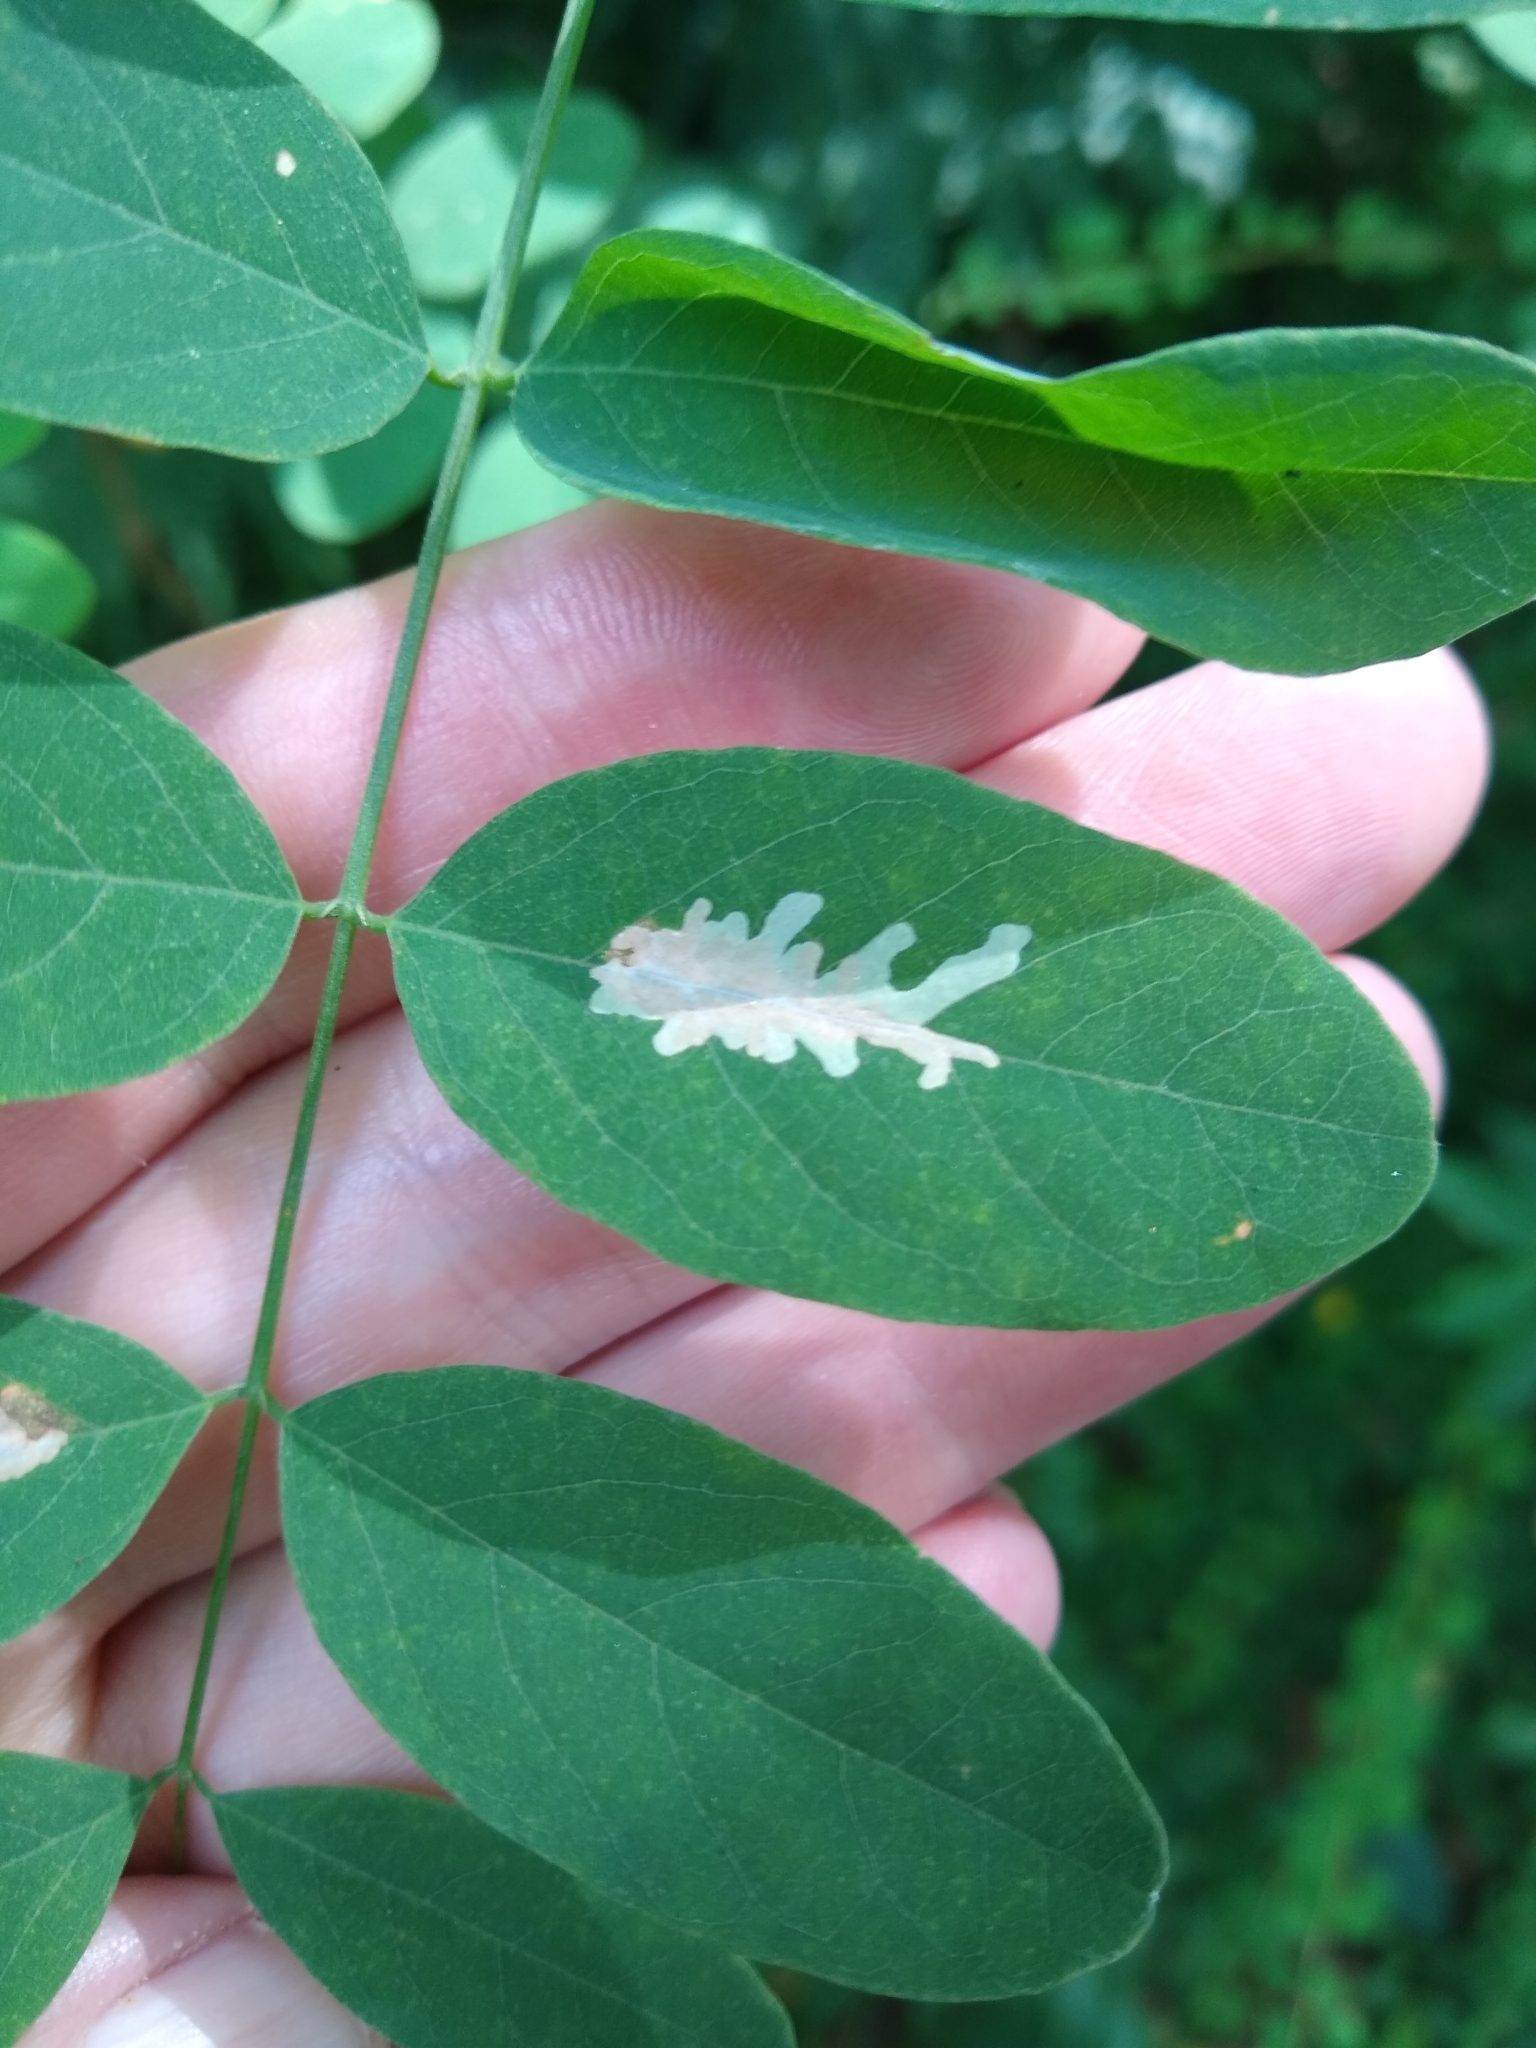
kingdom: Animalia
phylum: Arthropoda
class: Insecta
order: Lepidoptera
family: Gracillariidae
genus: Parectopa
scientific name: Parectopa robiniella
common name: Locust digitate leafminer
